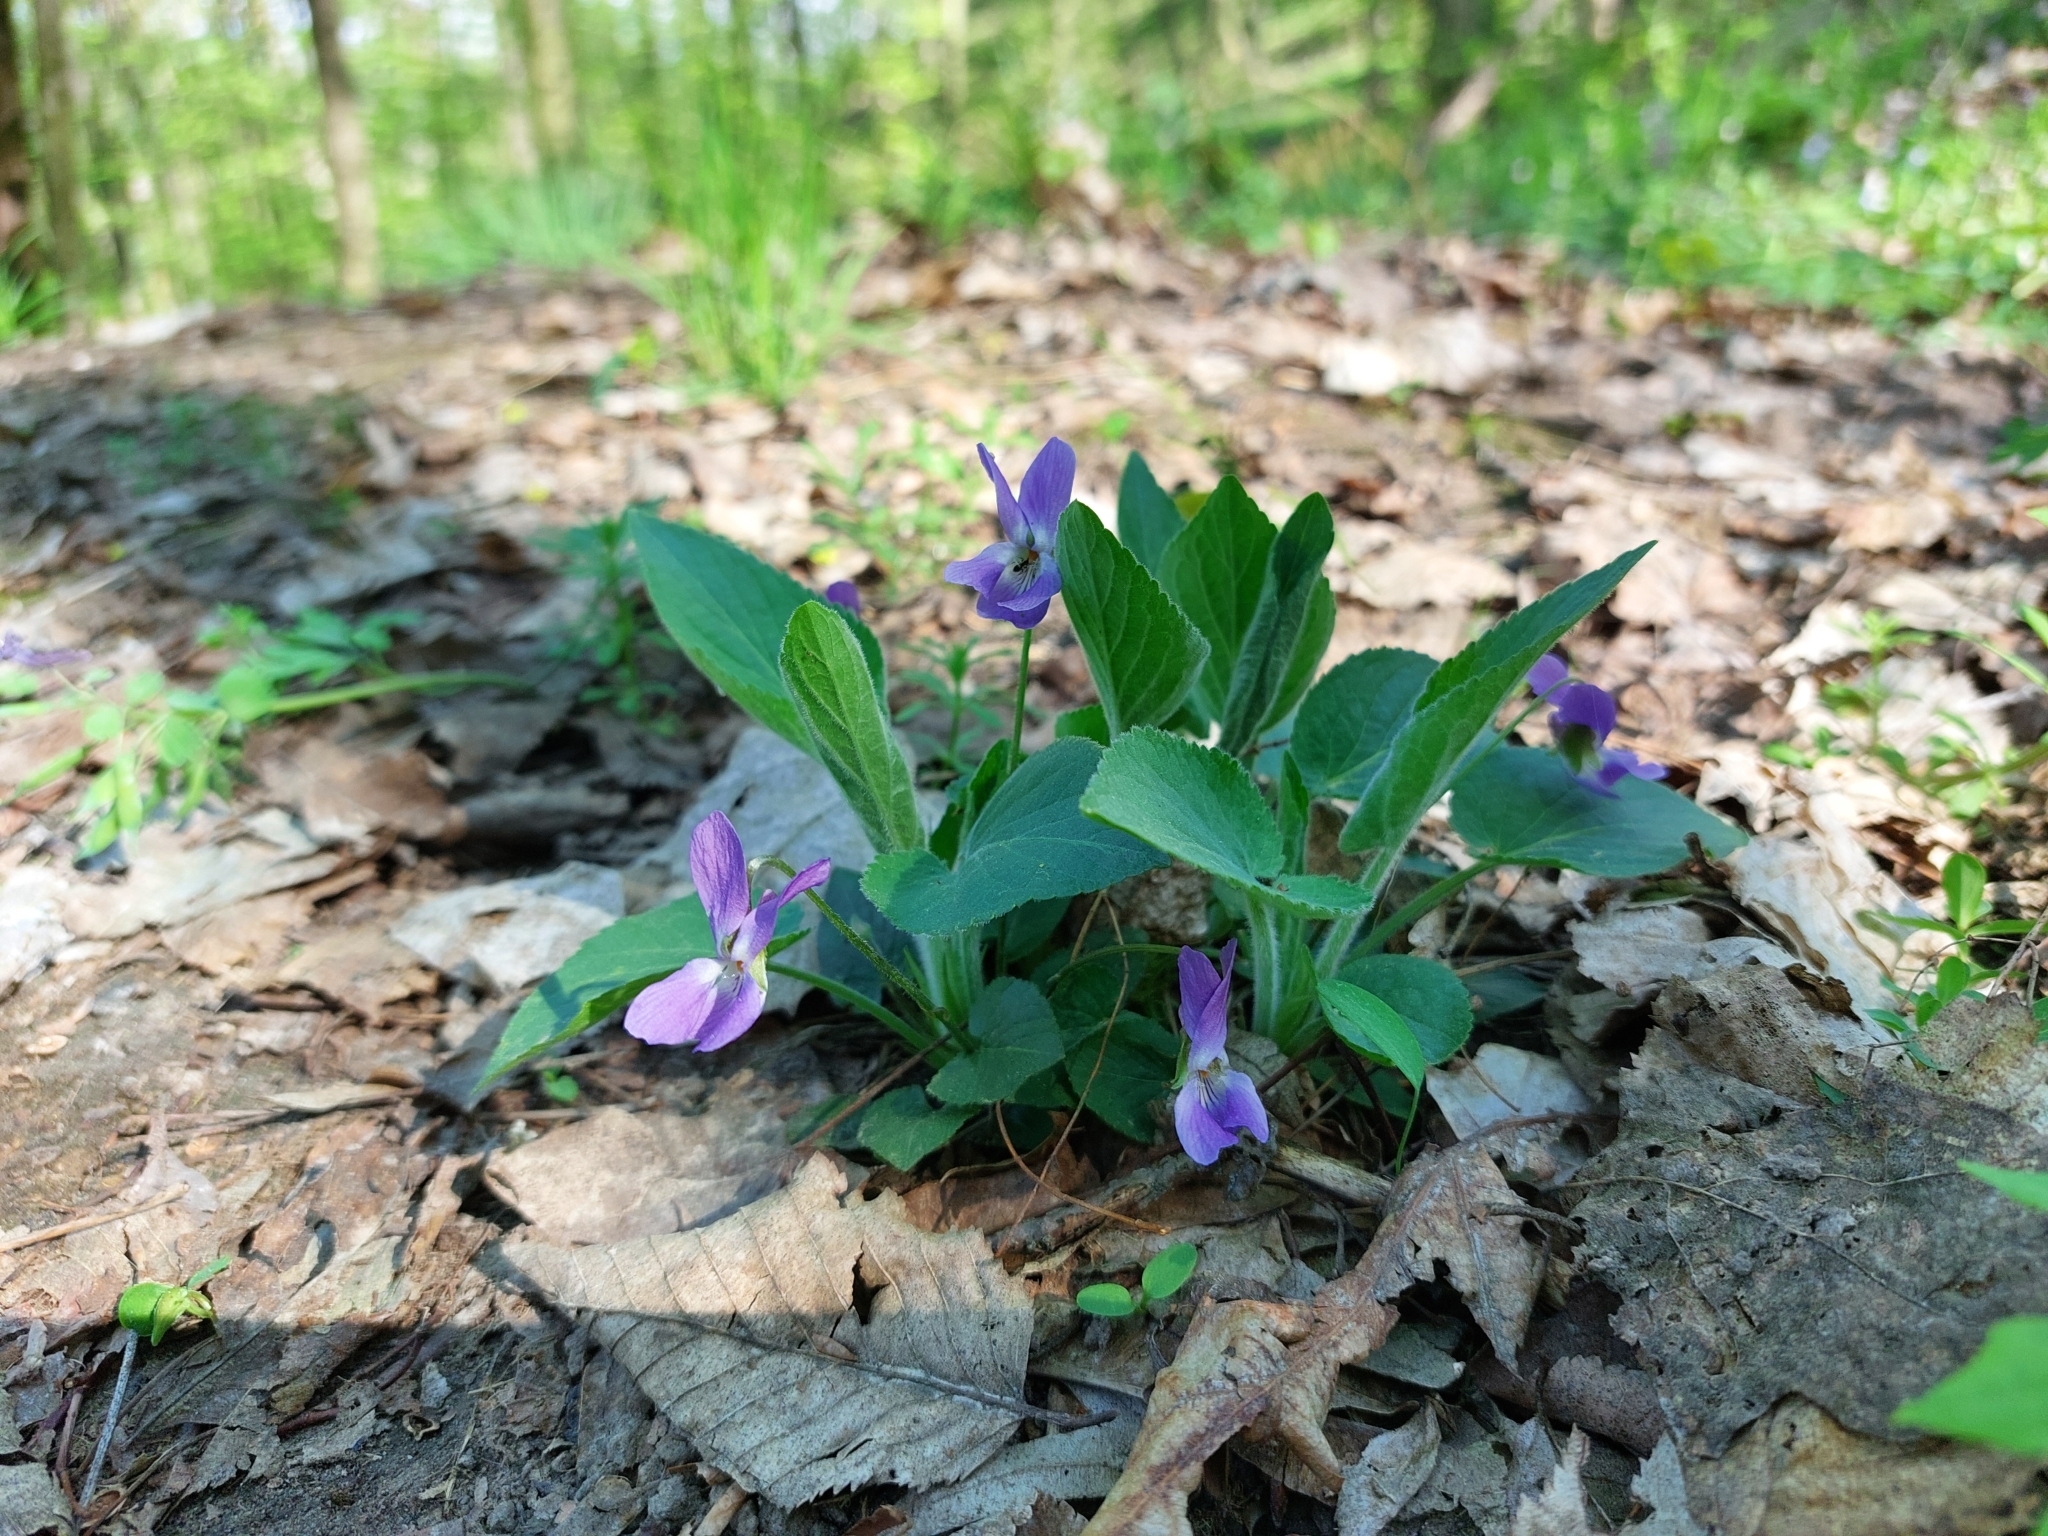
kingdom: Plantae
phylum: Tracheophyta
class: Magnoliopsida
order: Malpighiales
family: Violaceae
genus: Viola
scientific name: Viola hirta
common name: Hairy violet
